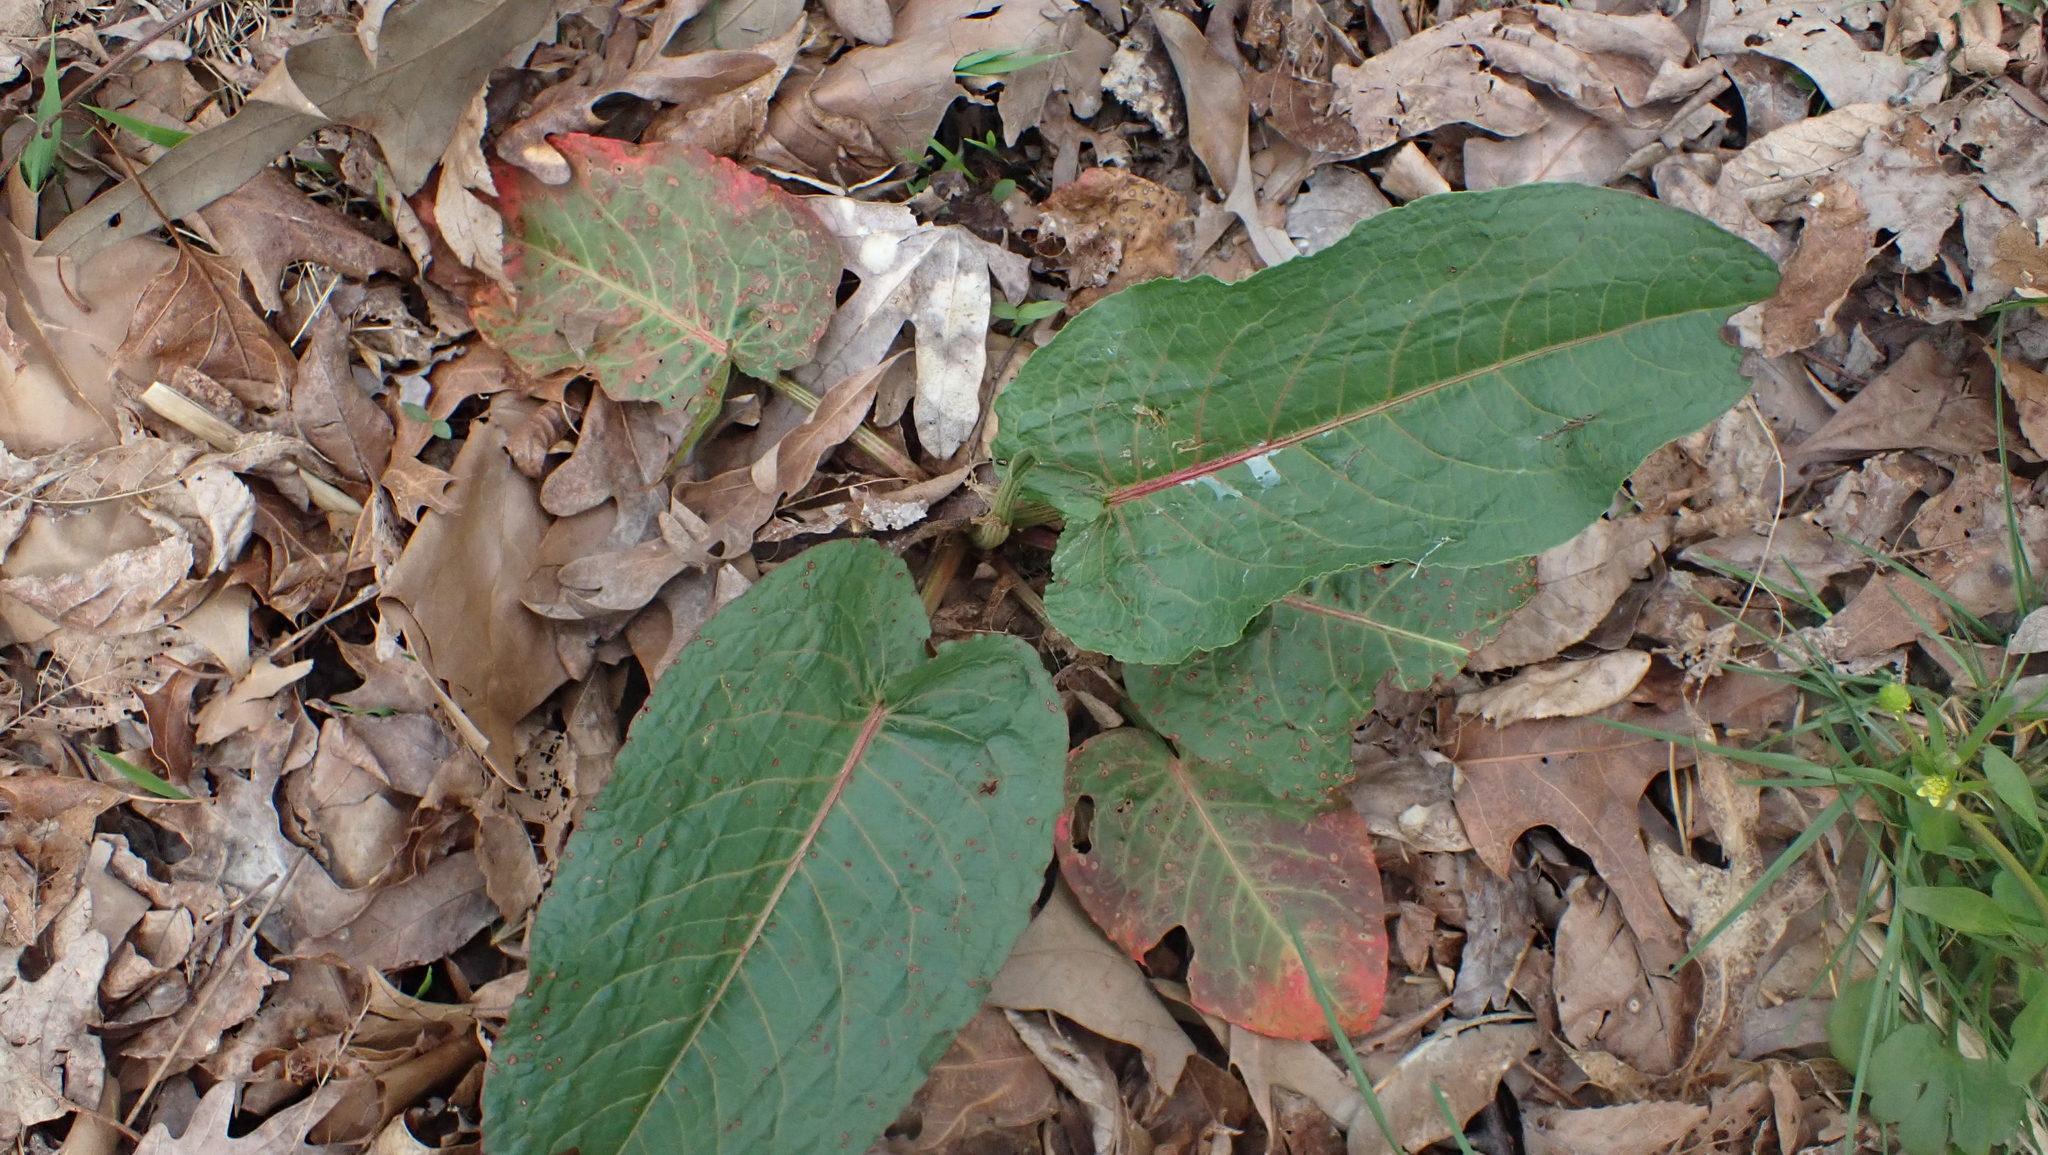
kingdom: Plantae
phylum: Tracheophyta
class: Magnoliopsida
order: Caryophyllales
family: Polygonaceae
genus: Rumex
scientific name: Rumex obtusifolius
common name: Bitter dock
